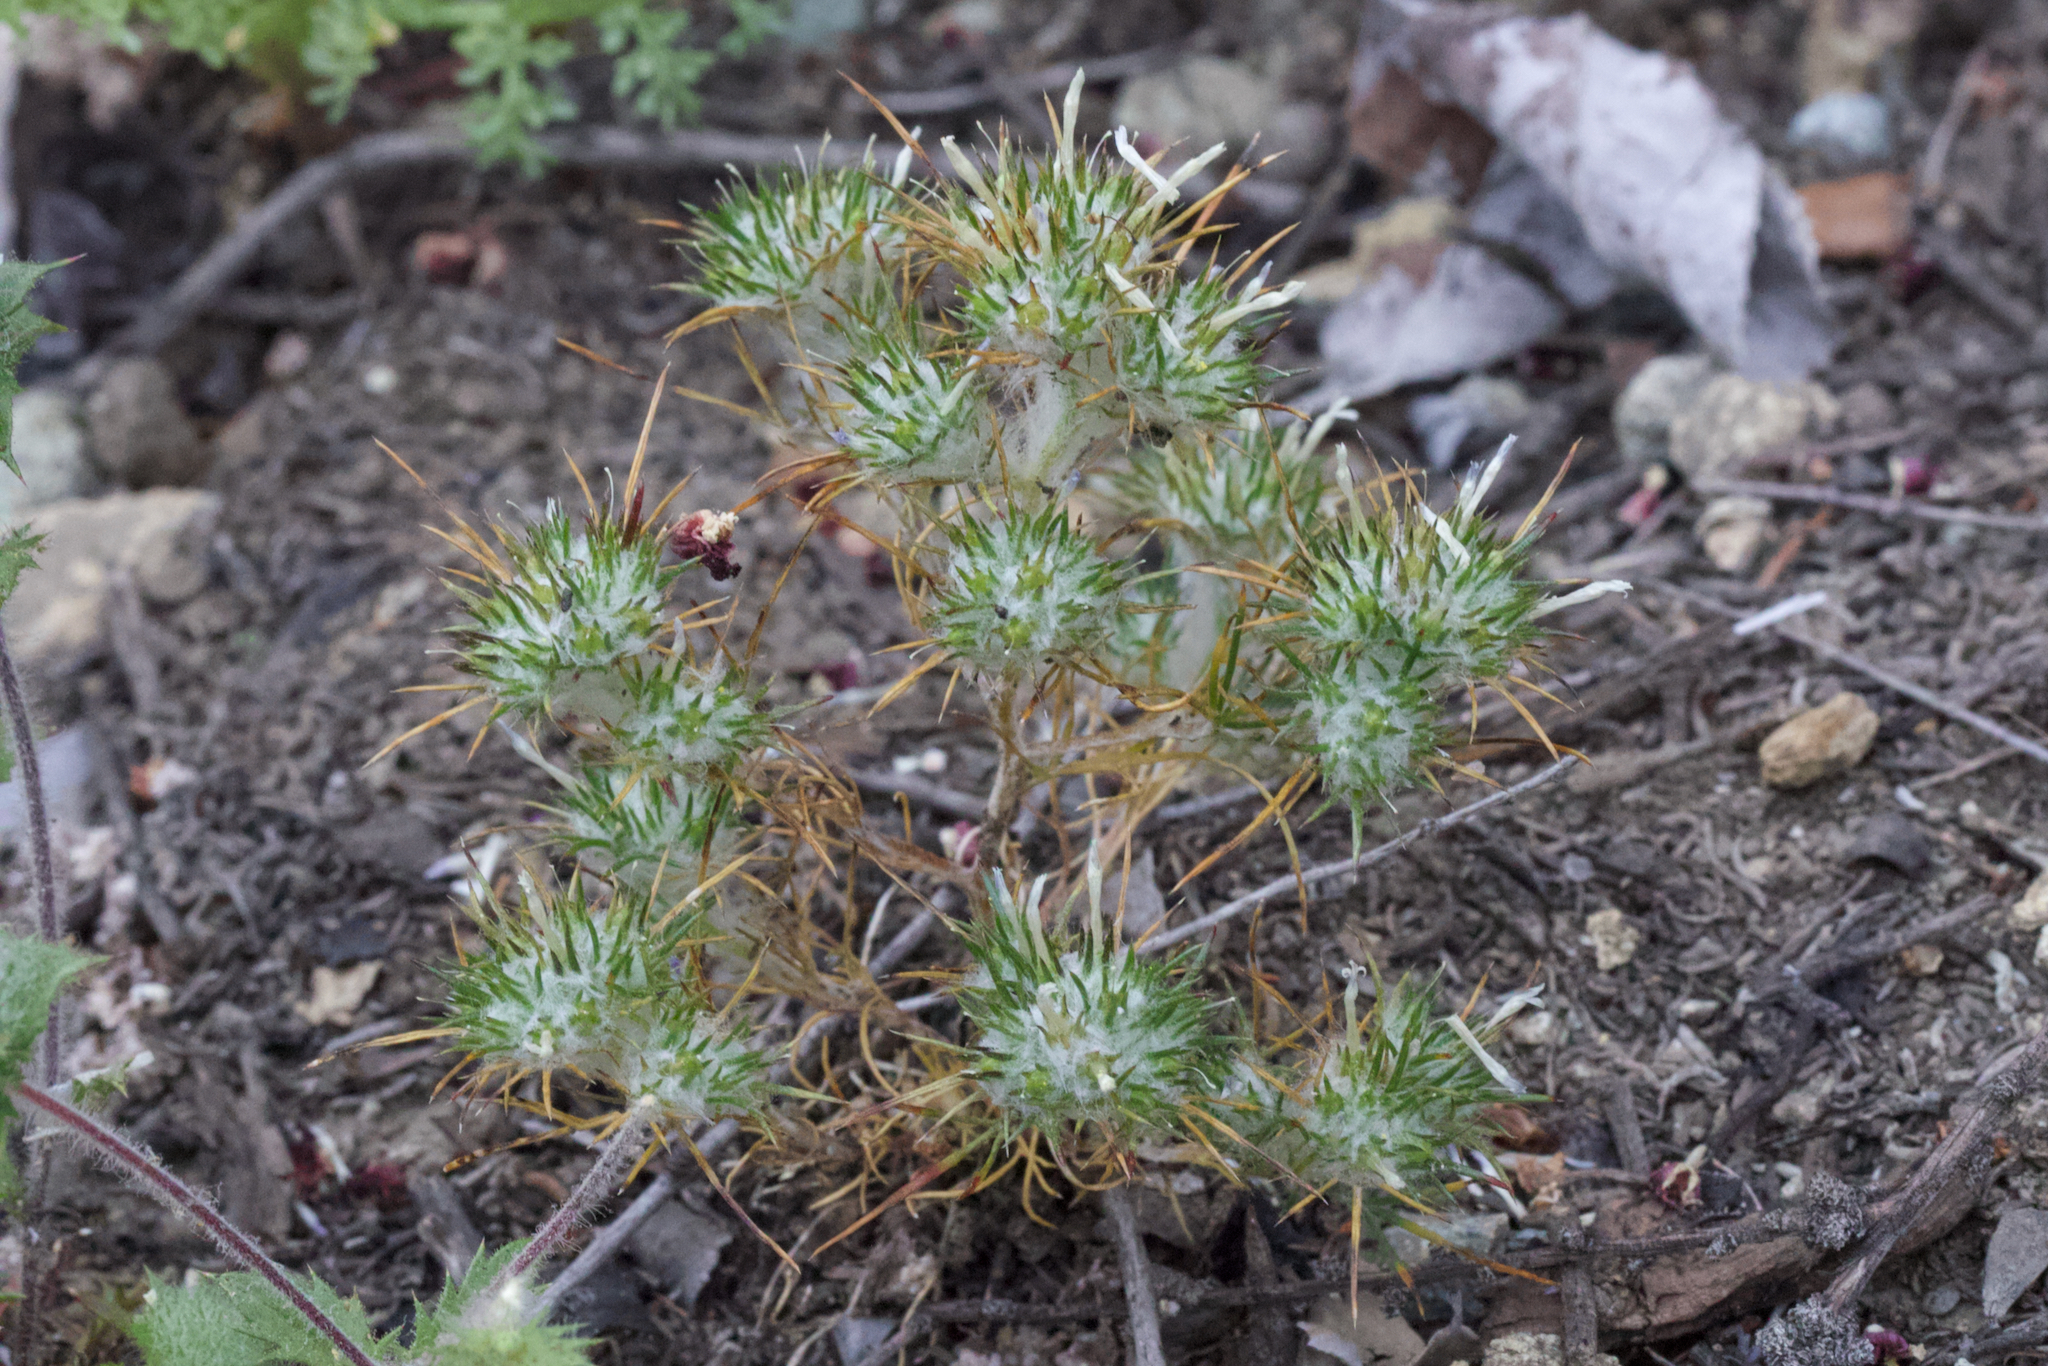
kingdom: Plantae
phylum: Tracheophyta
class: Magnoliopsida
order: Ericales
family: Polemoniaceae
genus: Eriastrum
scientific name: Eriastrum abramsii
